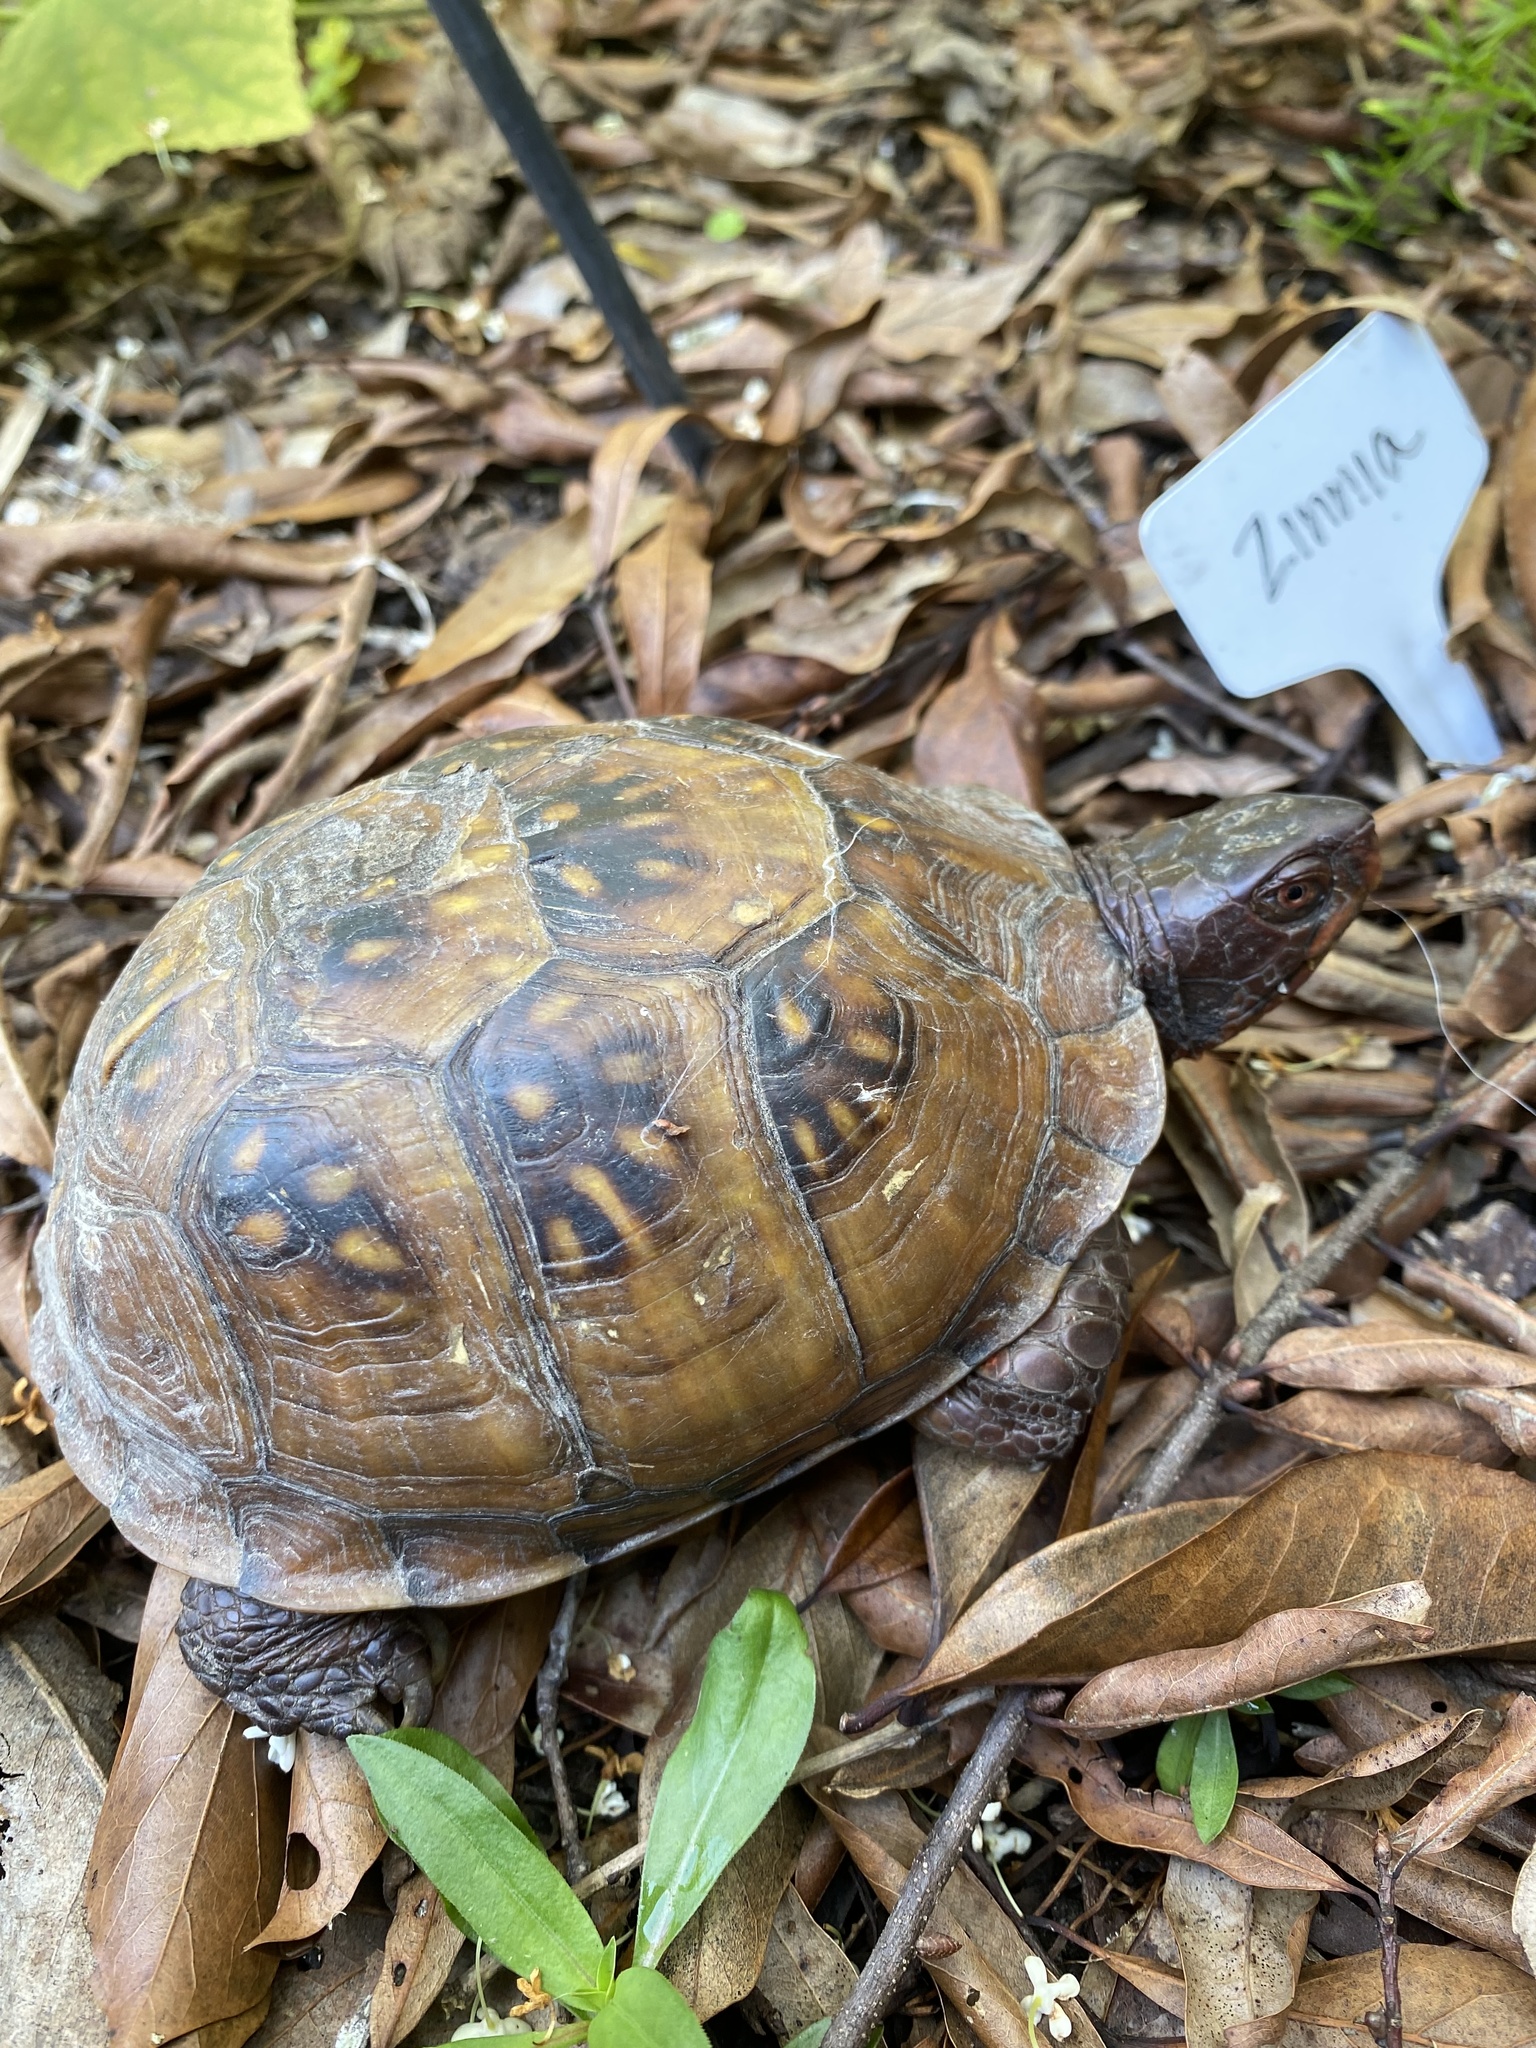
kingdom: Animalia
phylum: Chordata
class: Testudines
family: Emydidae
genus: Terrapene
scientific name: Terrapene carolina
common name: Common box turtle
